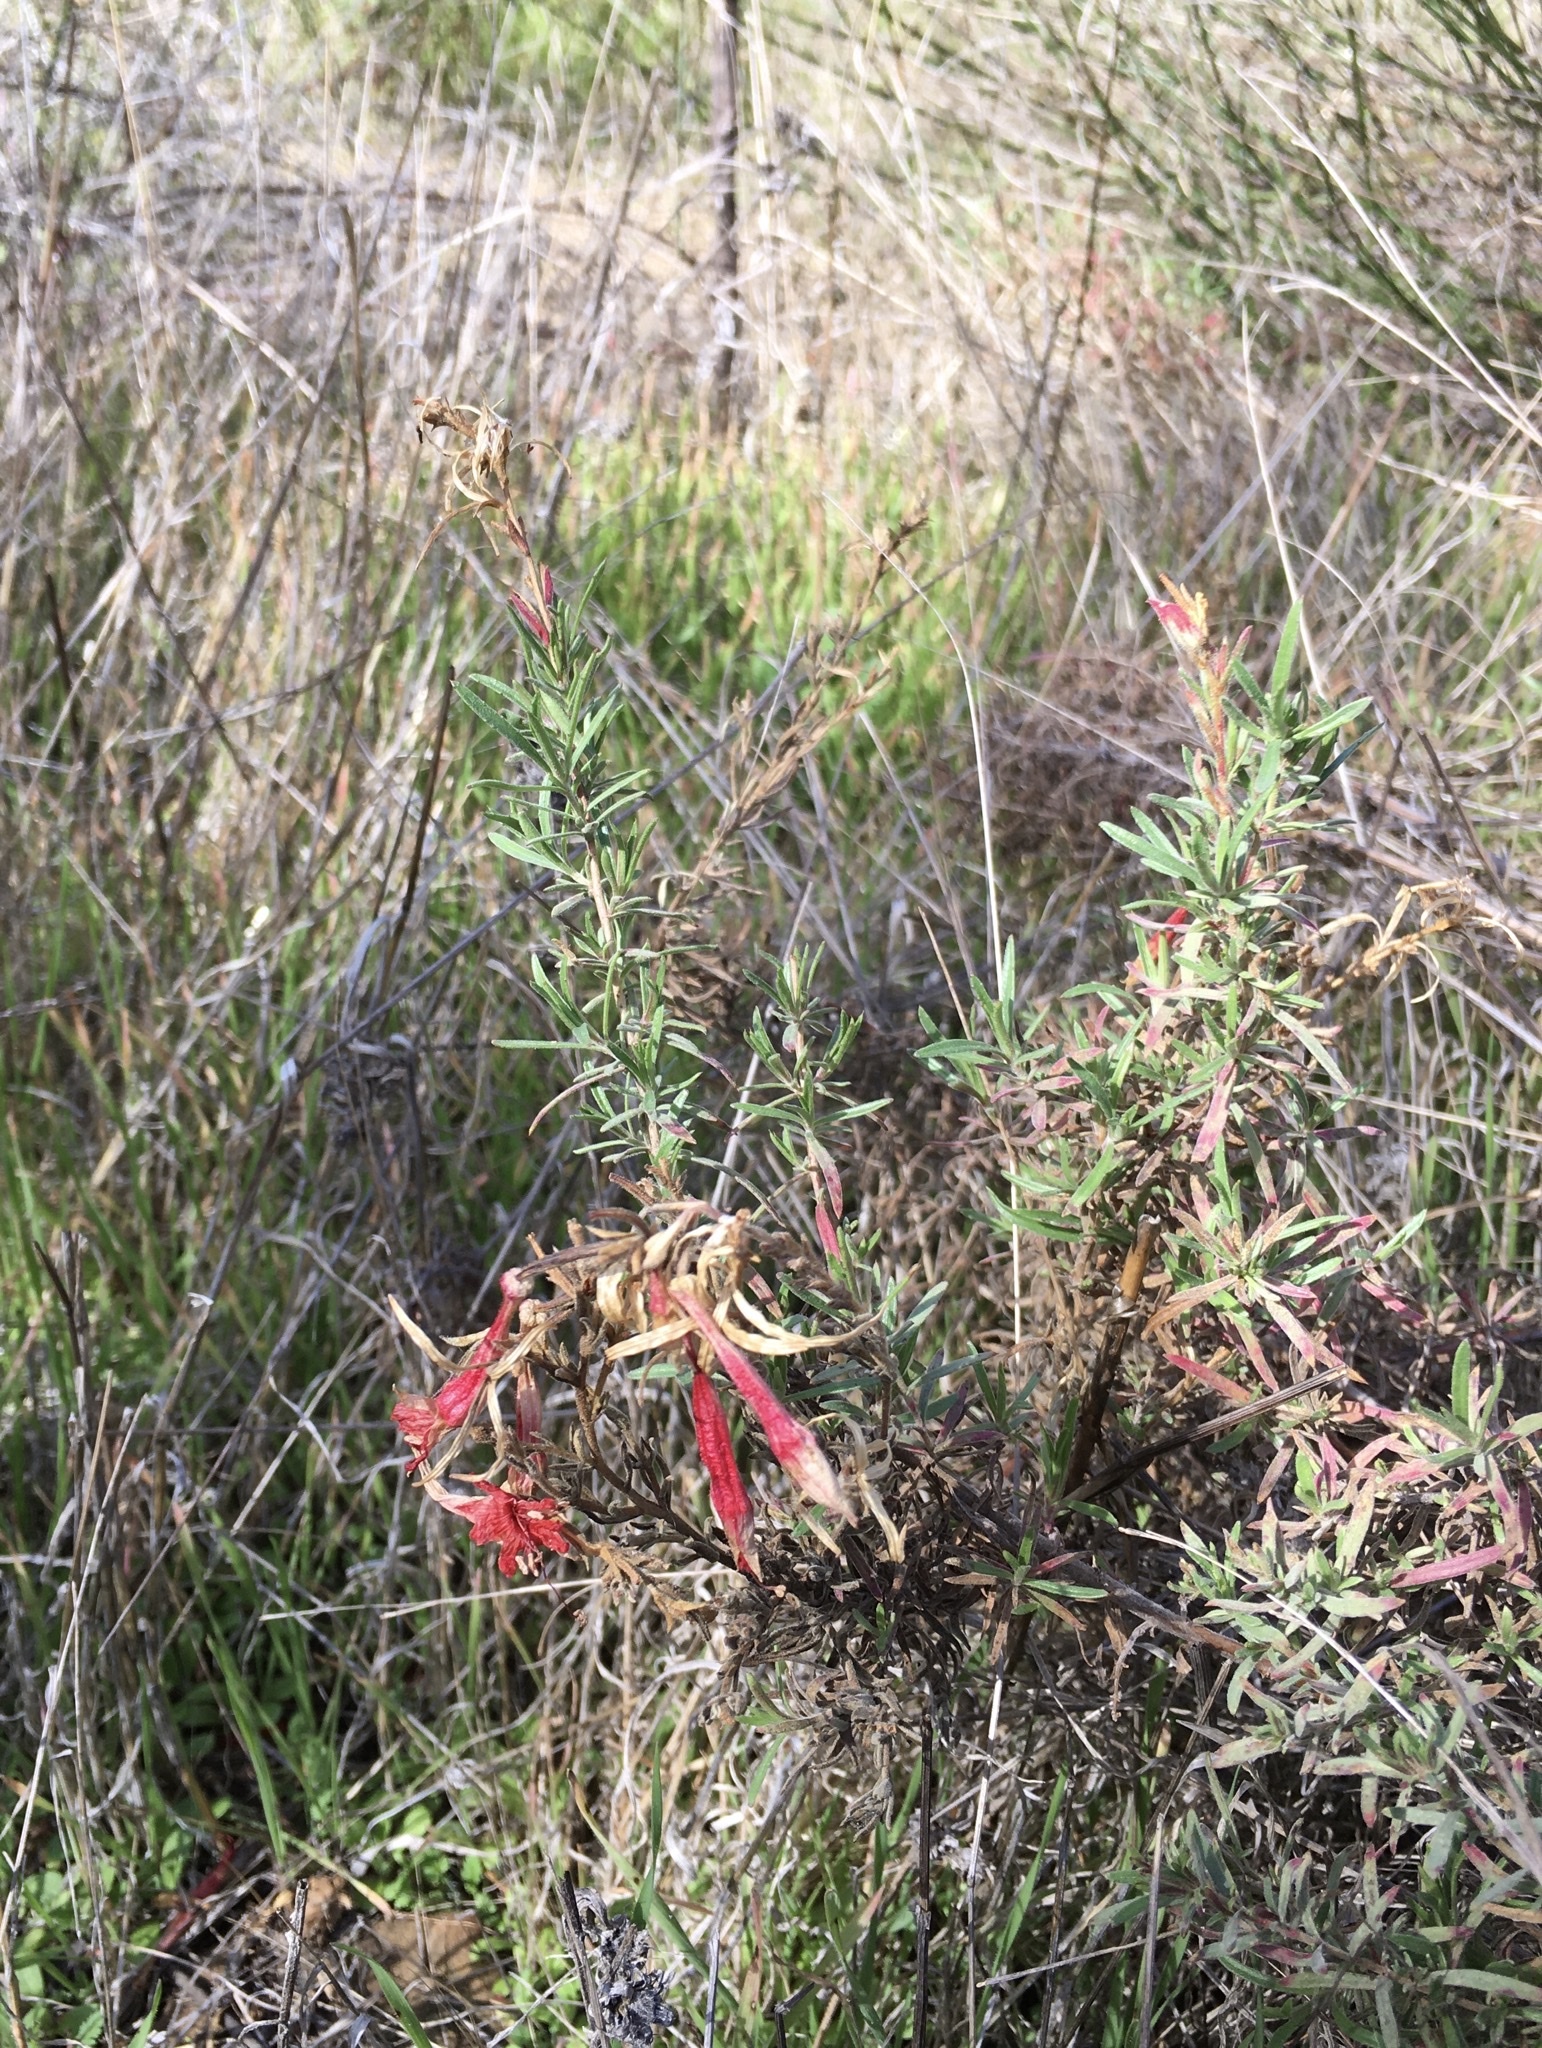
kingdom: Plantae
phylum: Tracheophyta
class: Magnoliopsida
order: Myrtales
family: Onagraceae
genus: Epilobium
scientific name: Epilobium canum
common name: California-fuchsia
